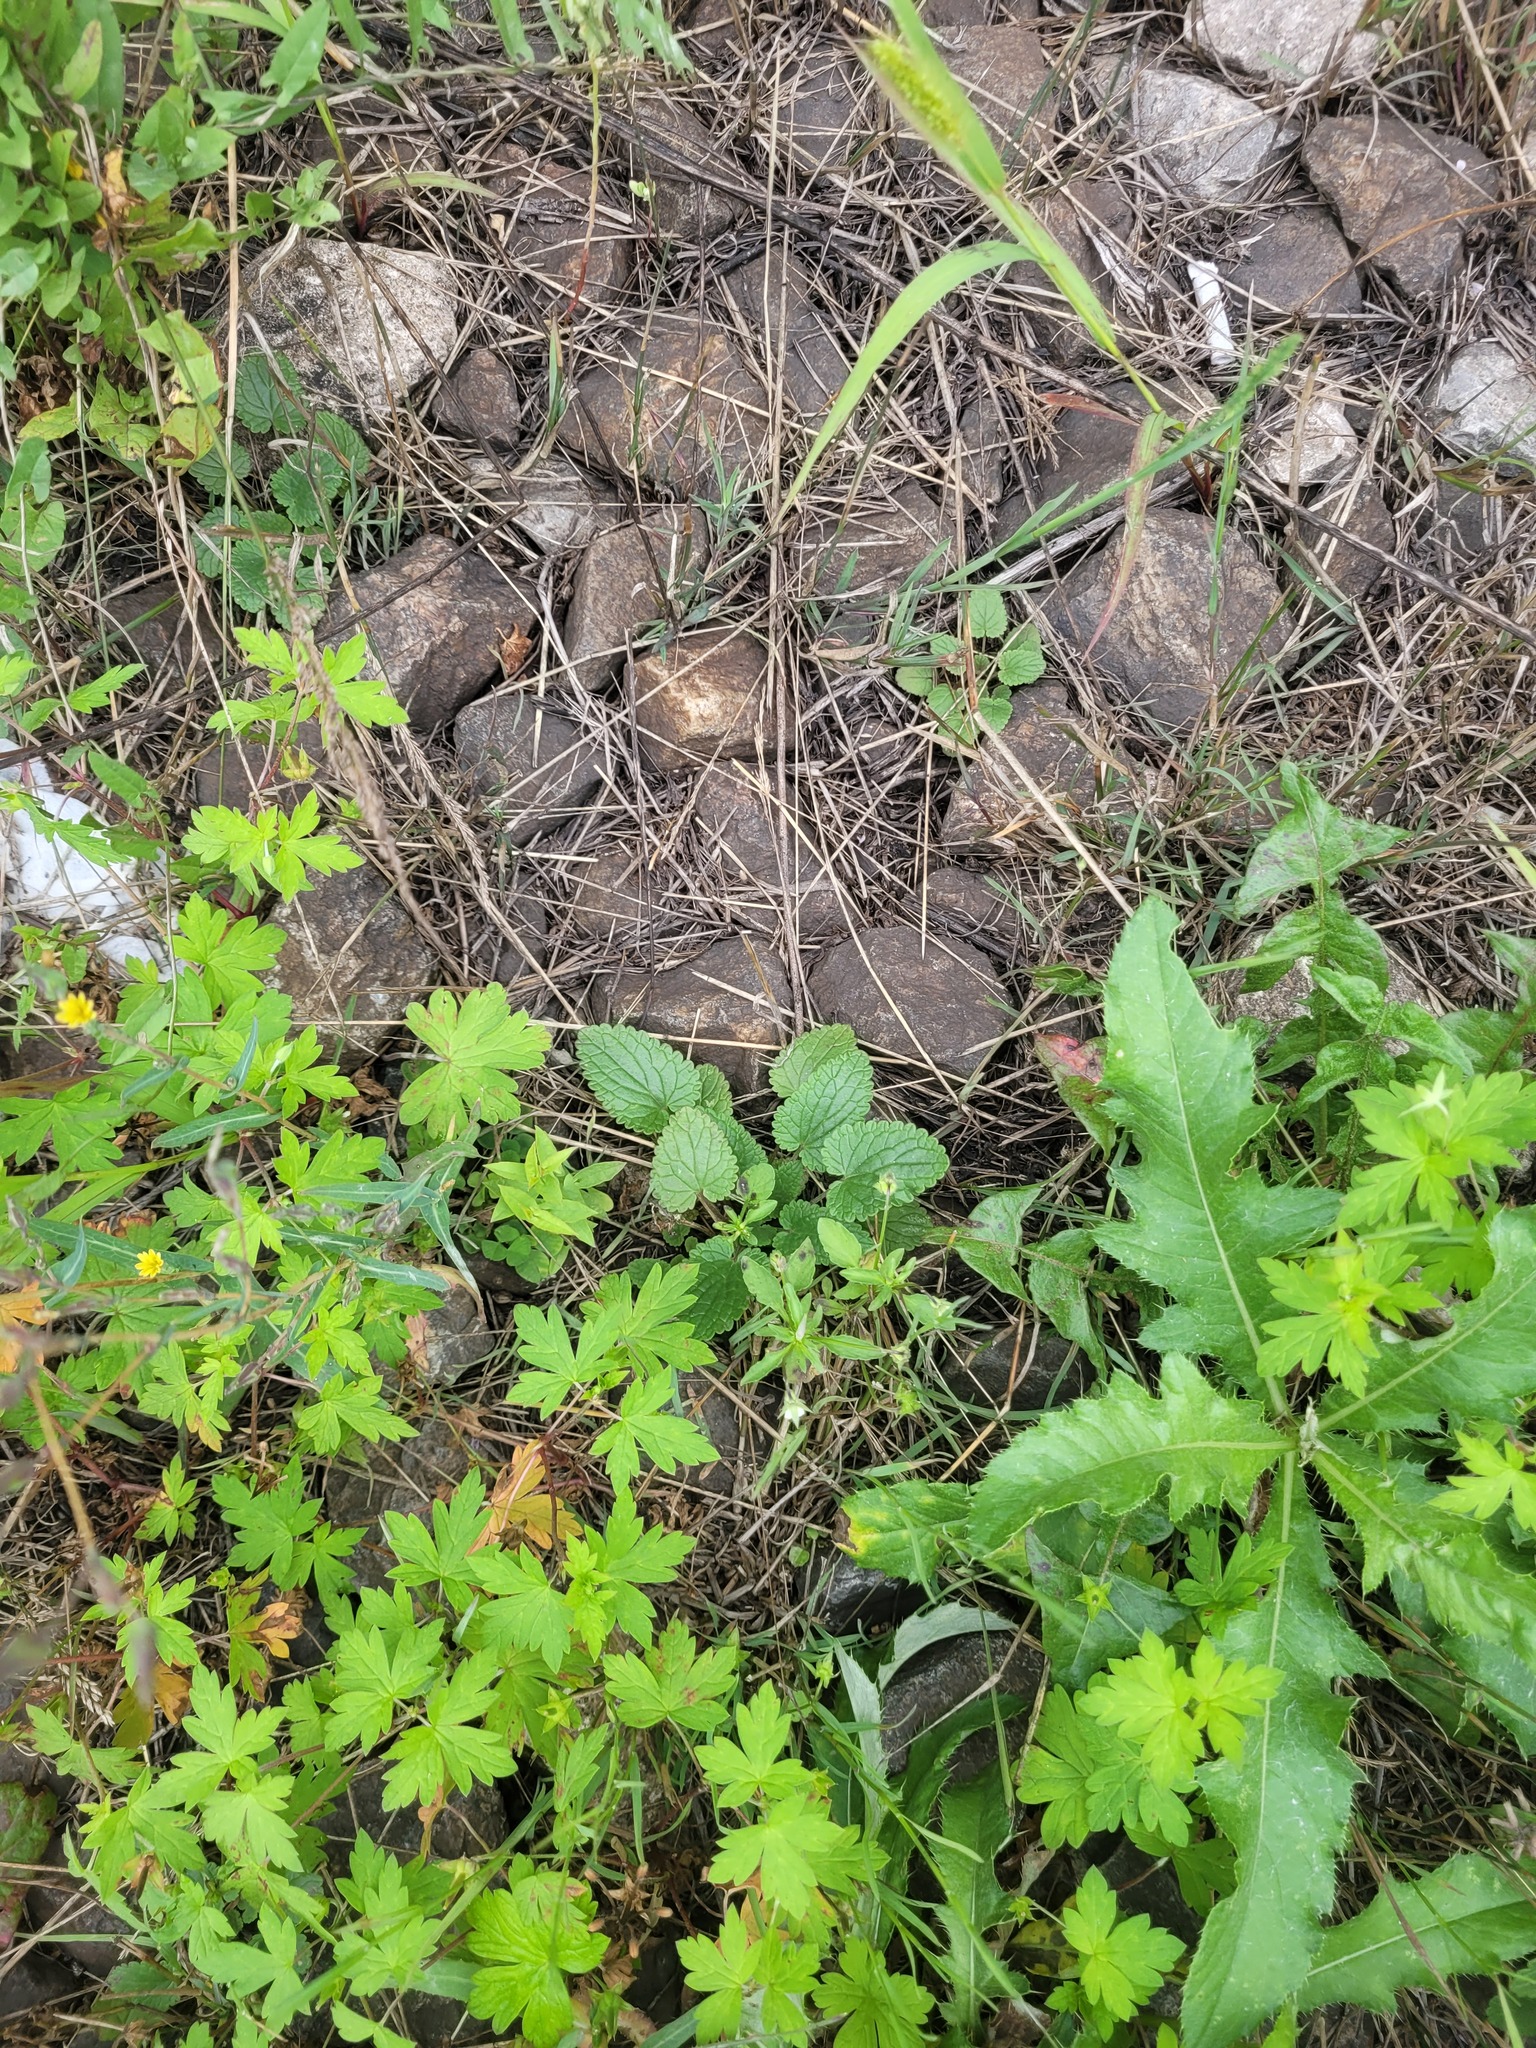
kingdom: Plantae
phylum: Tracheophyta
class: Magnoliopsida
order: Lamiales
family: Lamiaceae
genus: Dracocephalum
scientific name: Dracocephalum thymiflorum
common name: Thymeleaf dragonhead
